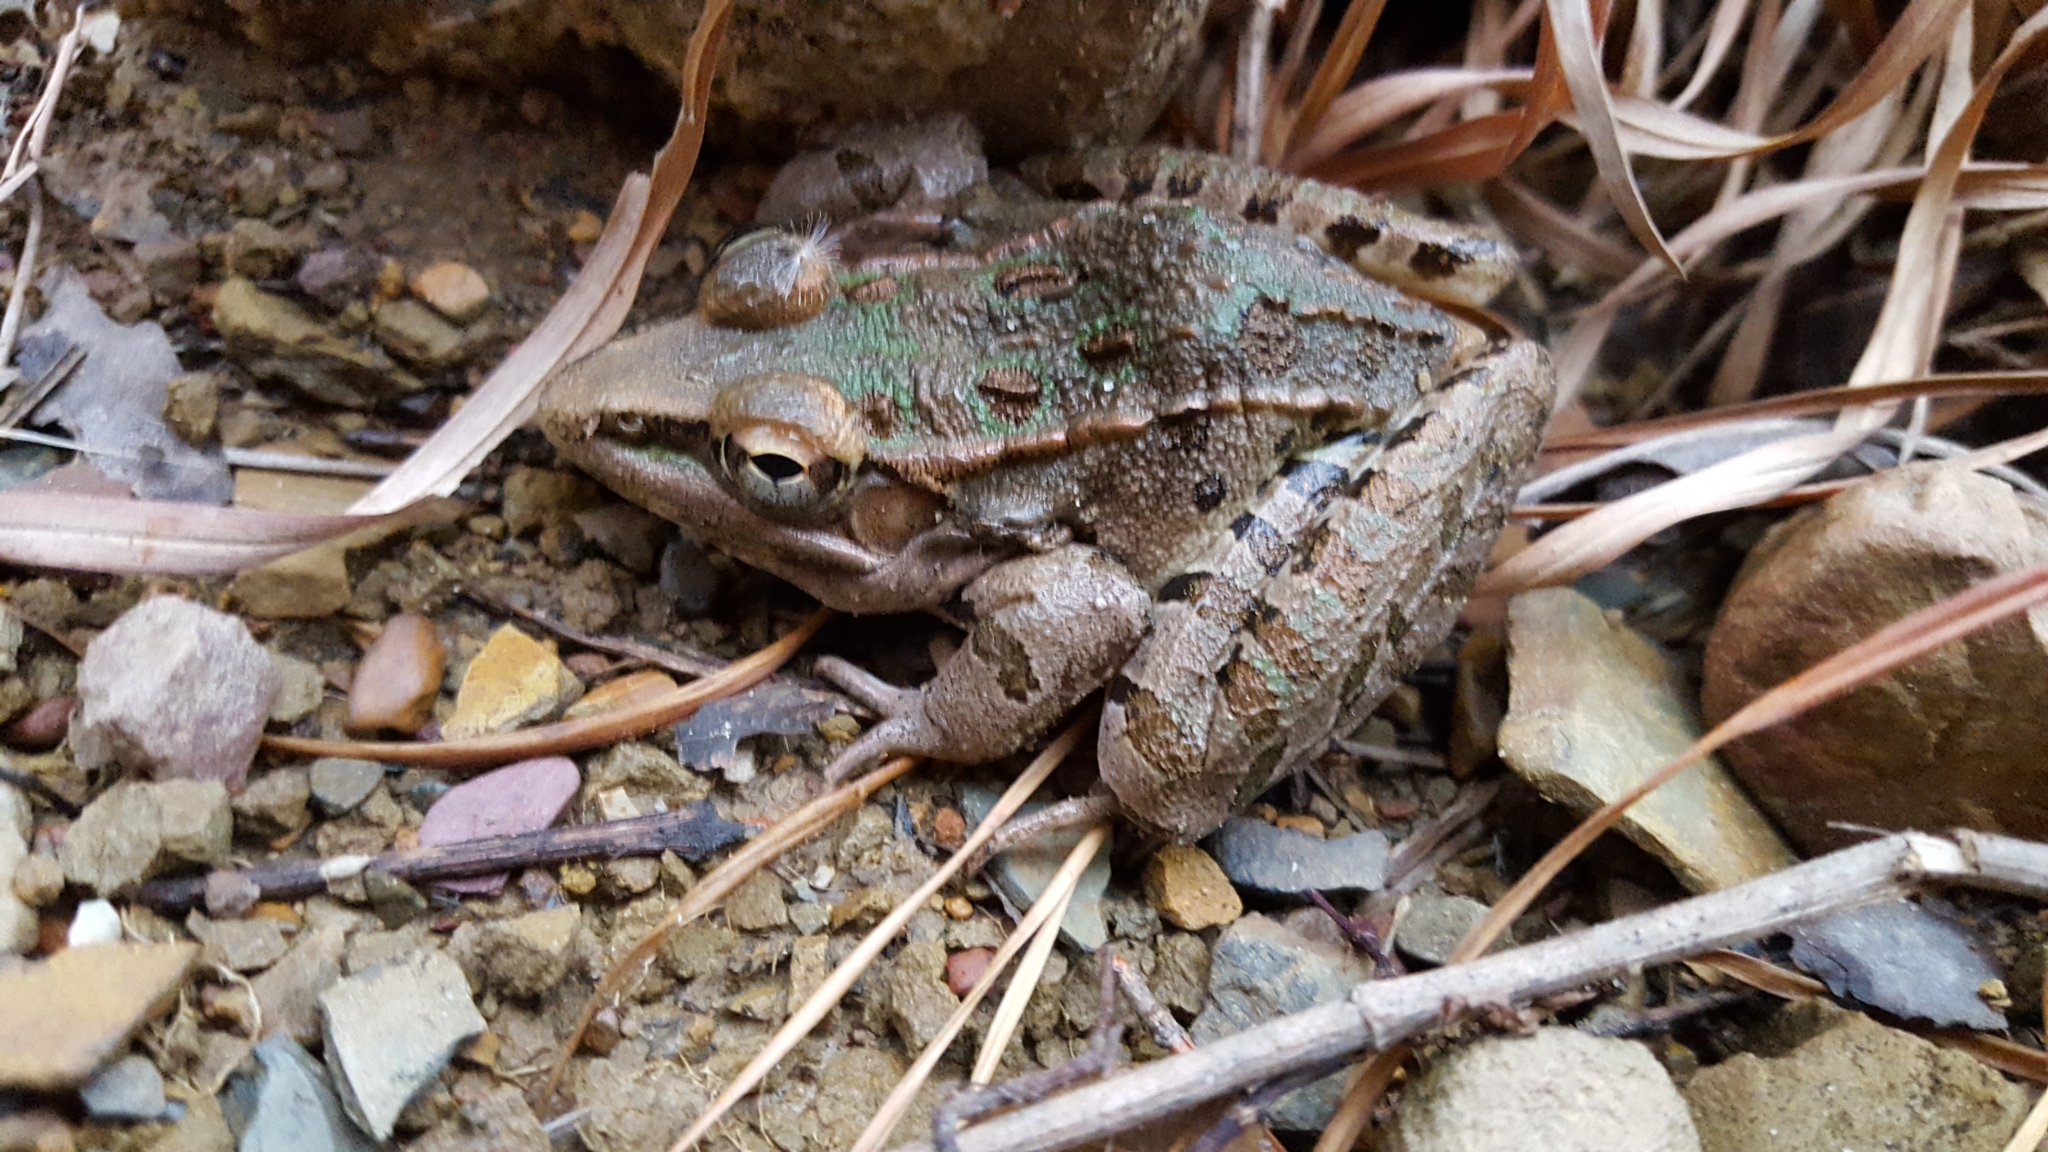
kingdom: Animalia
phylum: Chordata
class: Amphibia
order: Anura
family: Ranidae
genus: Lithobates
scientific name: Lithobates sphenocephalus
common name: Southern leopard frog
